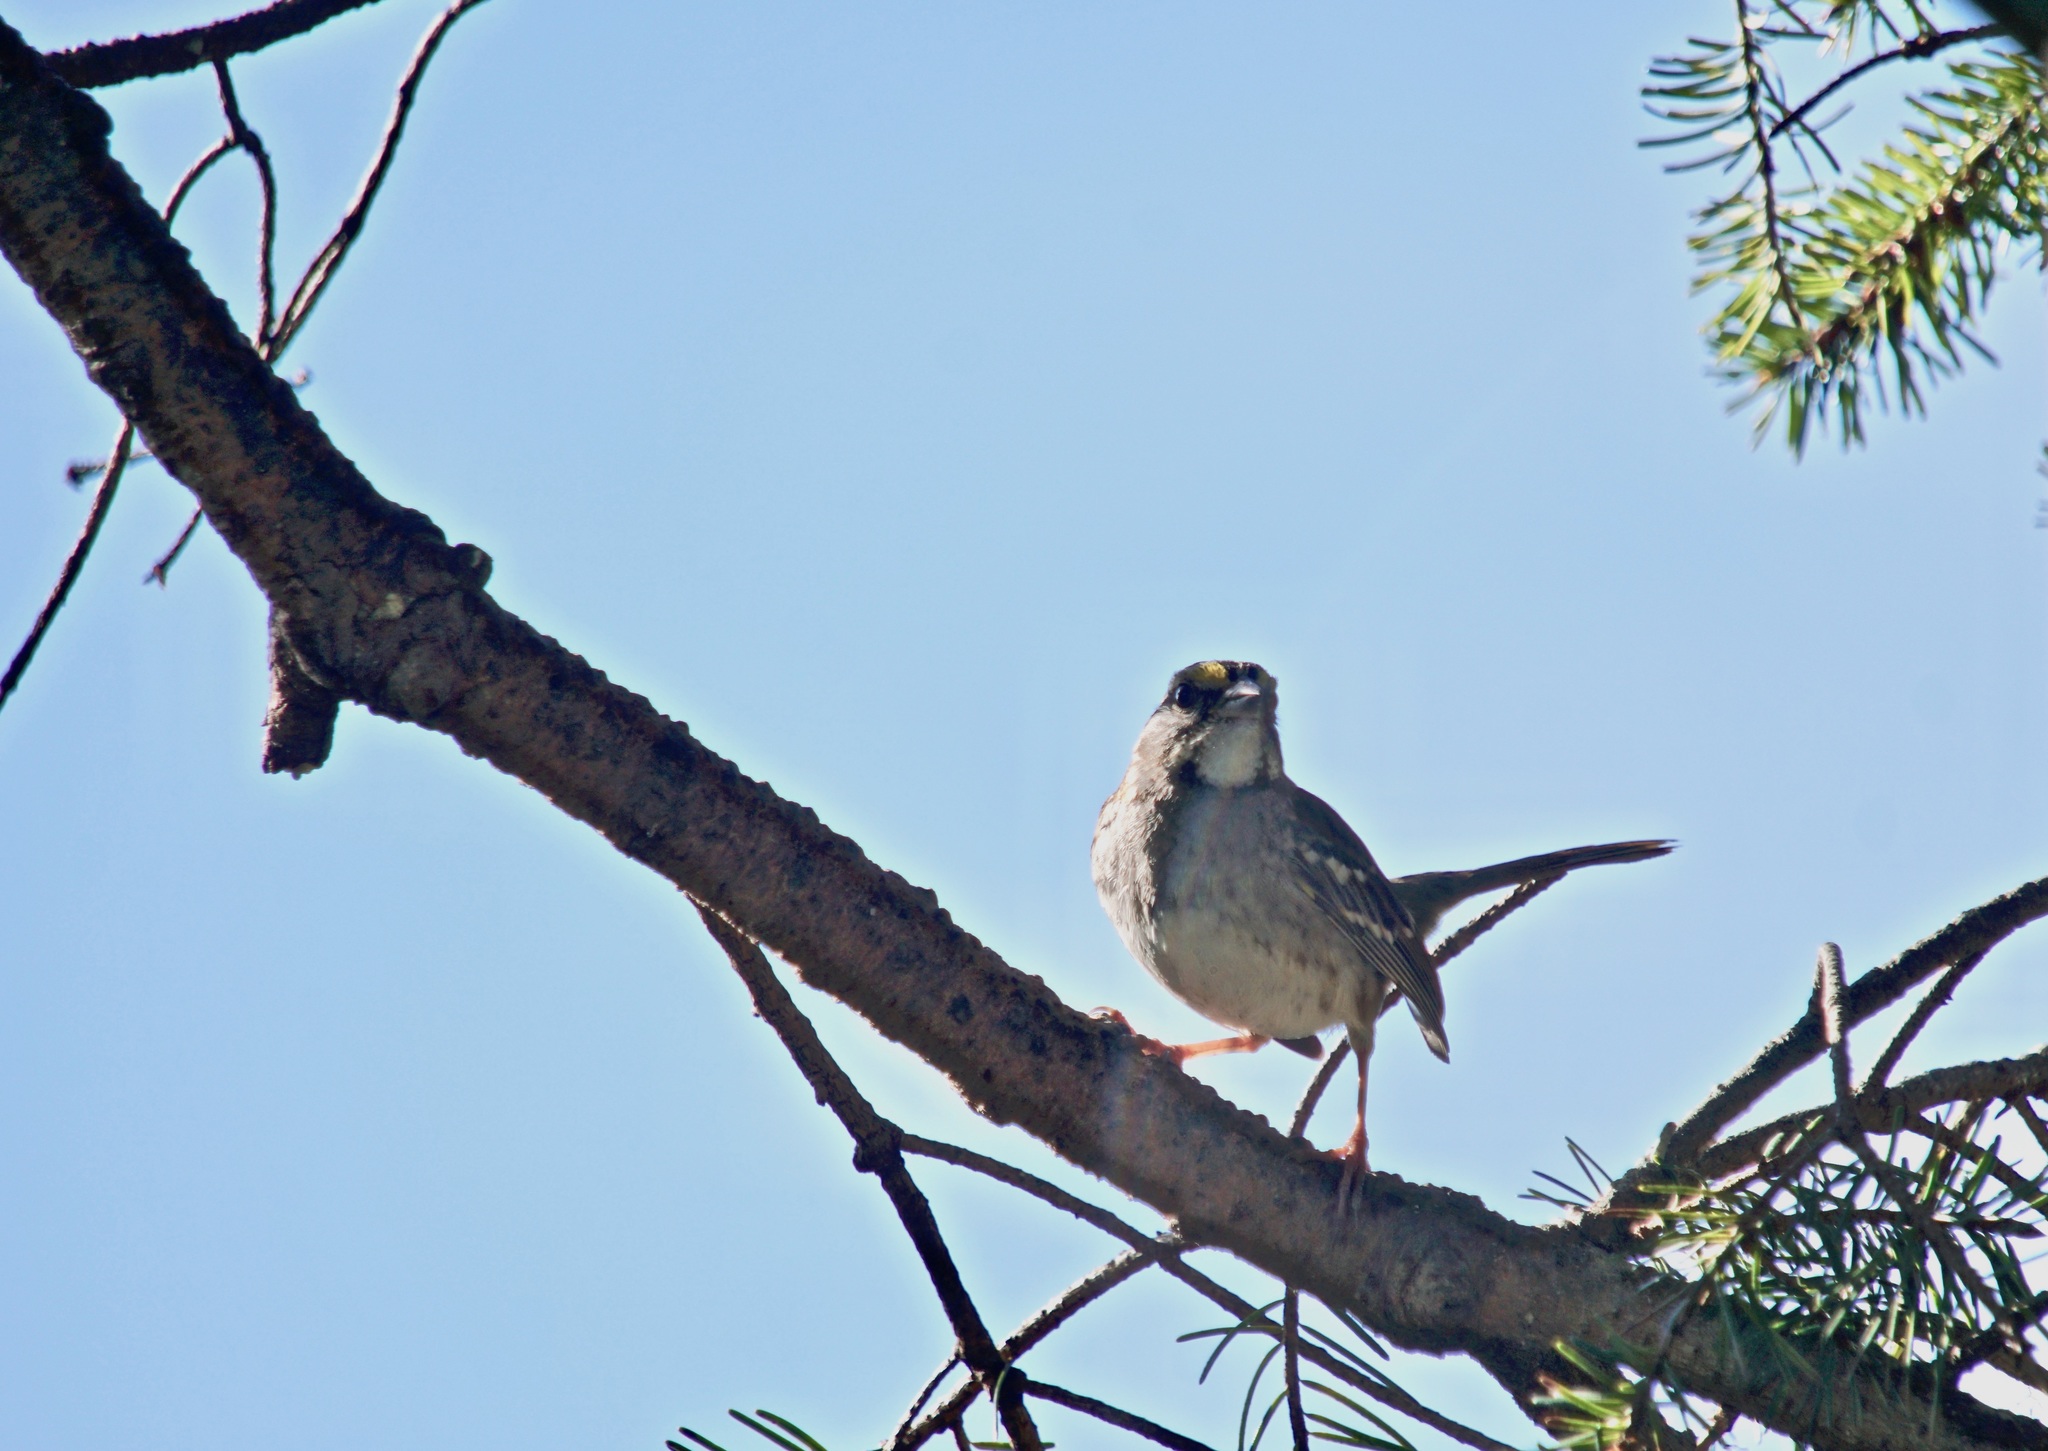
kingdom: Animalia
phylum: Chordata
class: Aves
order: Passeriformes
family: Passerellidae
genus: Zonotrichia
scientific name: Zonotrichia albicollis
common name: White-throated sparrow
